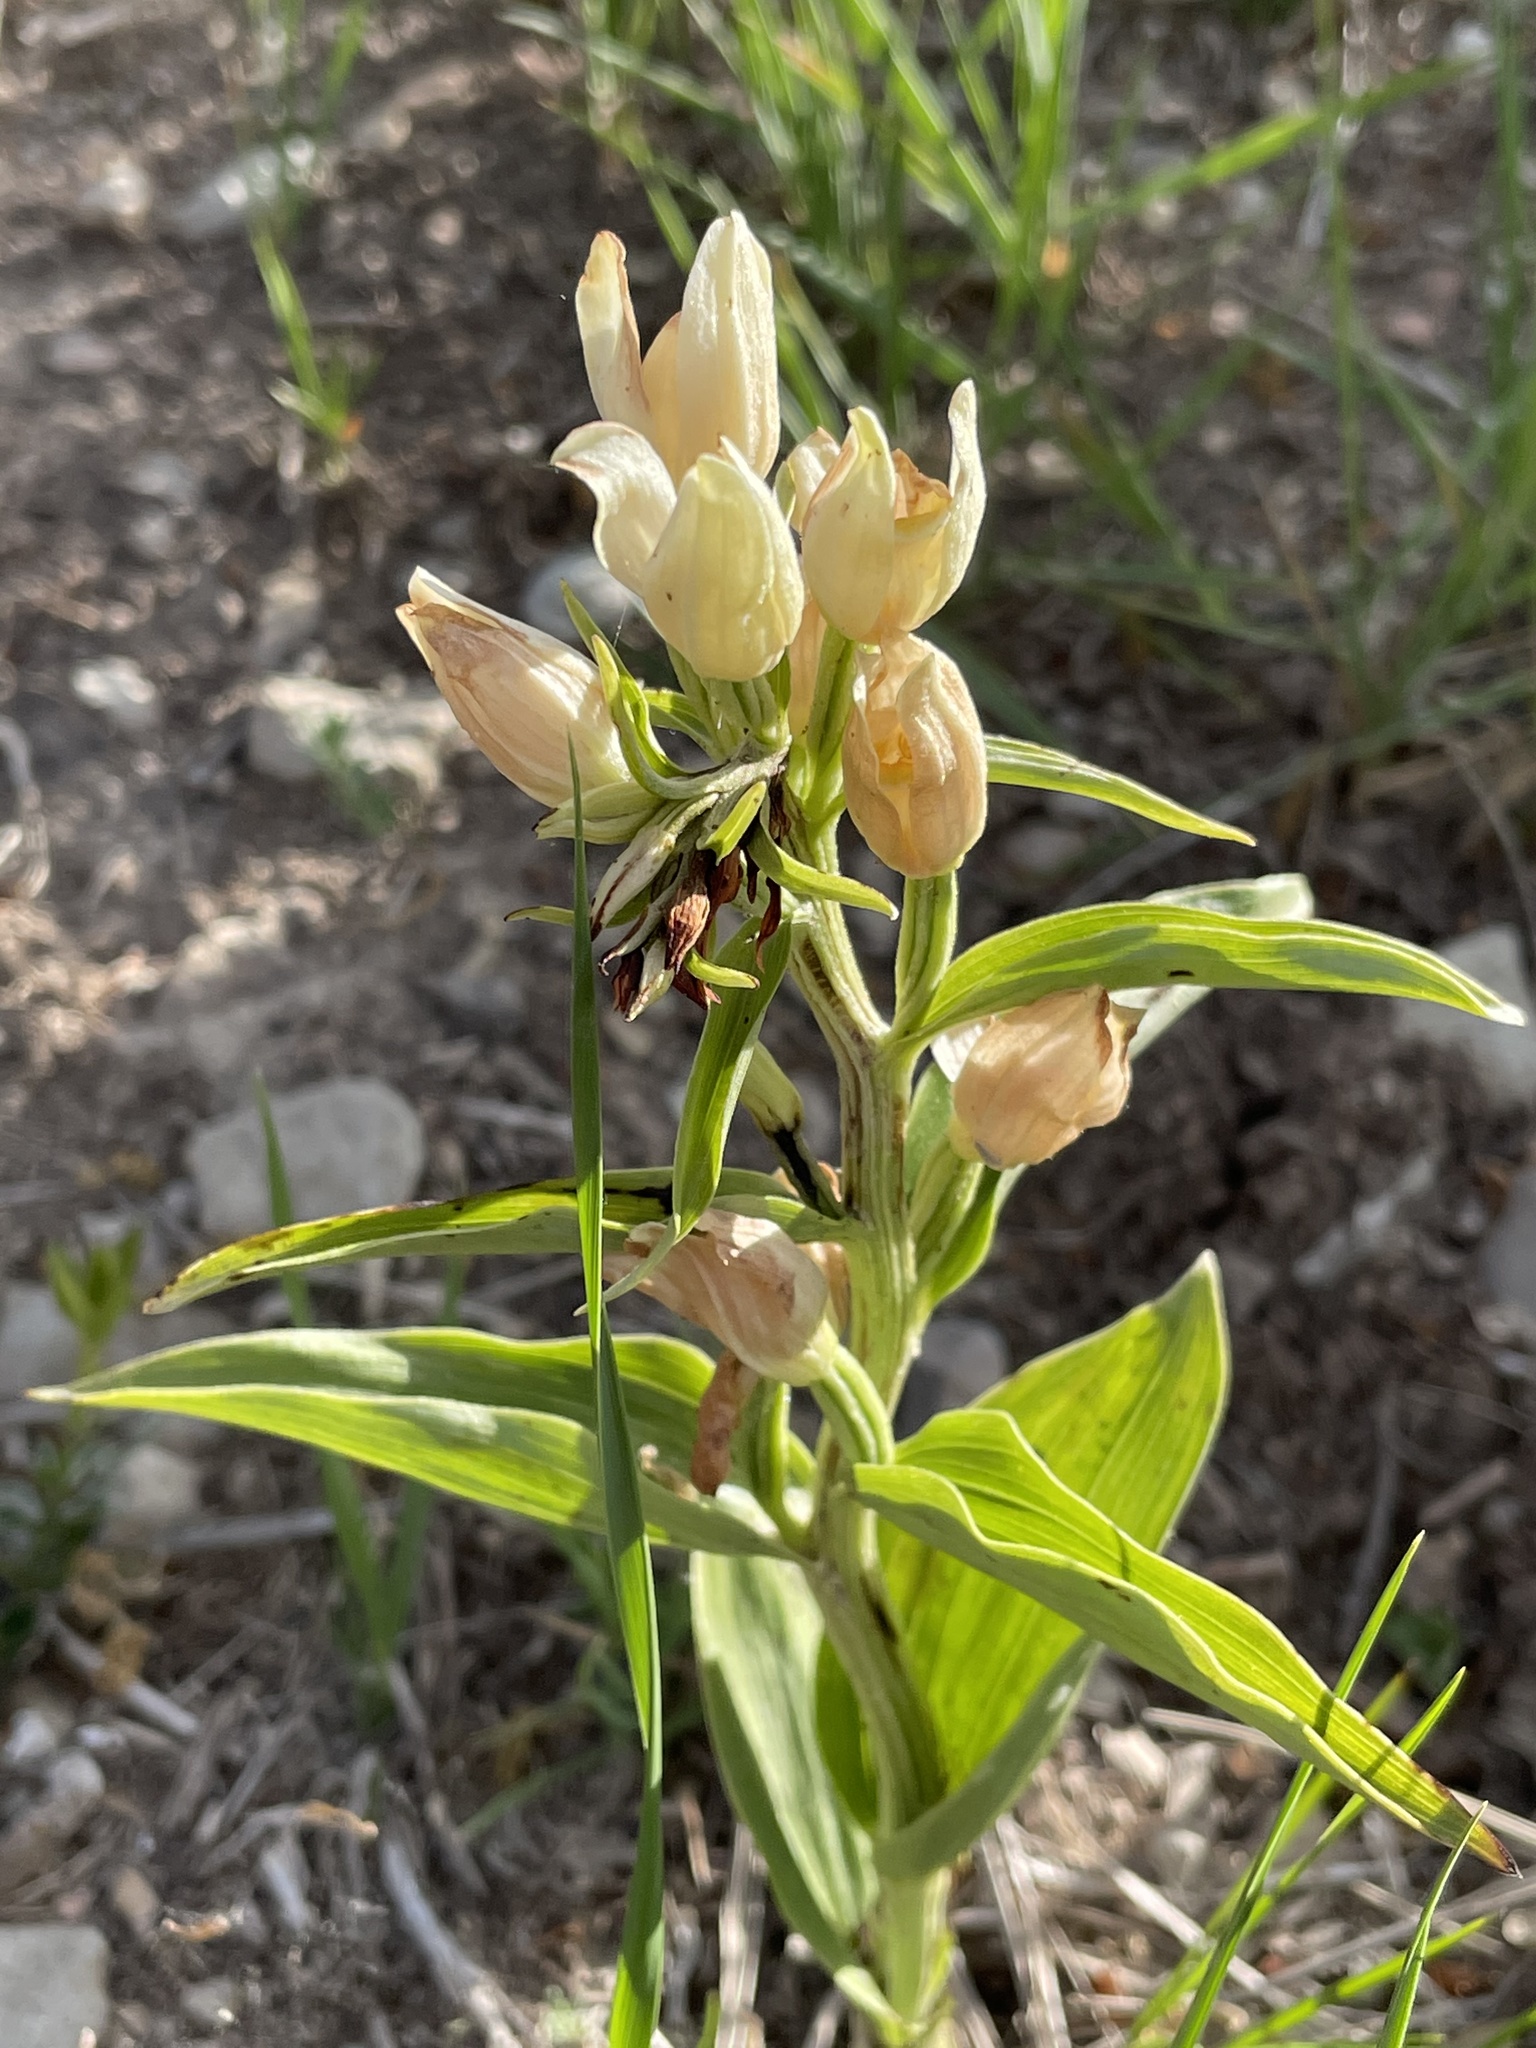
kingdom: Plantae
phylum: Tracheophyta
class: Liliopsida
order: Asparagales
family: Orchidaceae
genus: Cephalanthera
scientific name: Cephalanthera damasonium
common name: White helleborine
